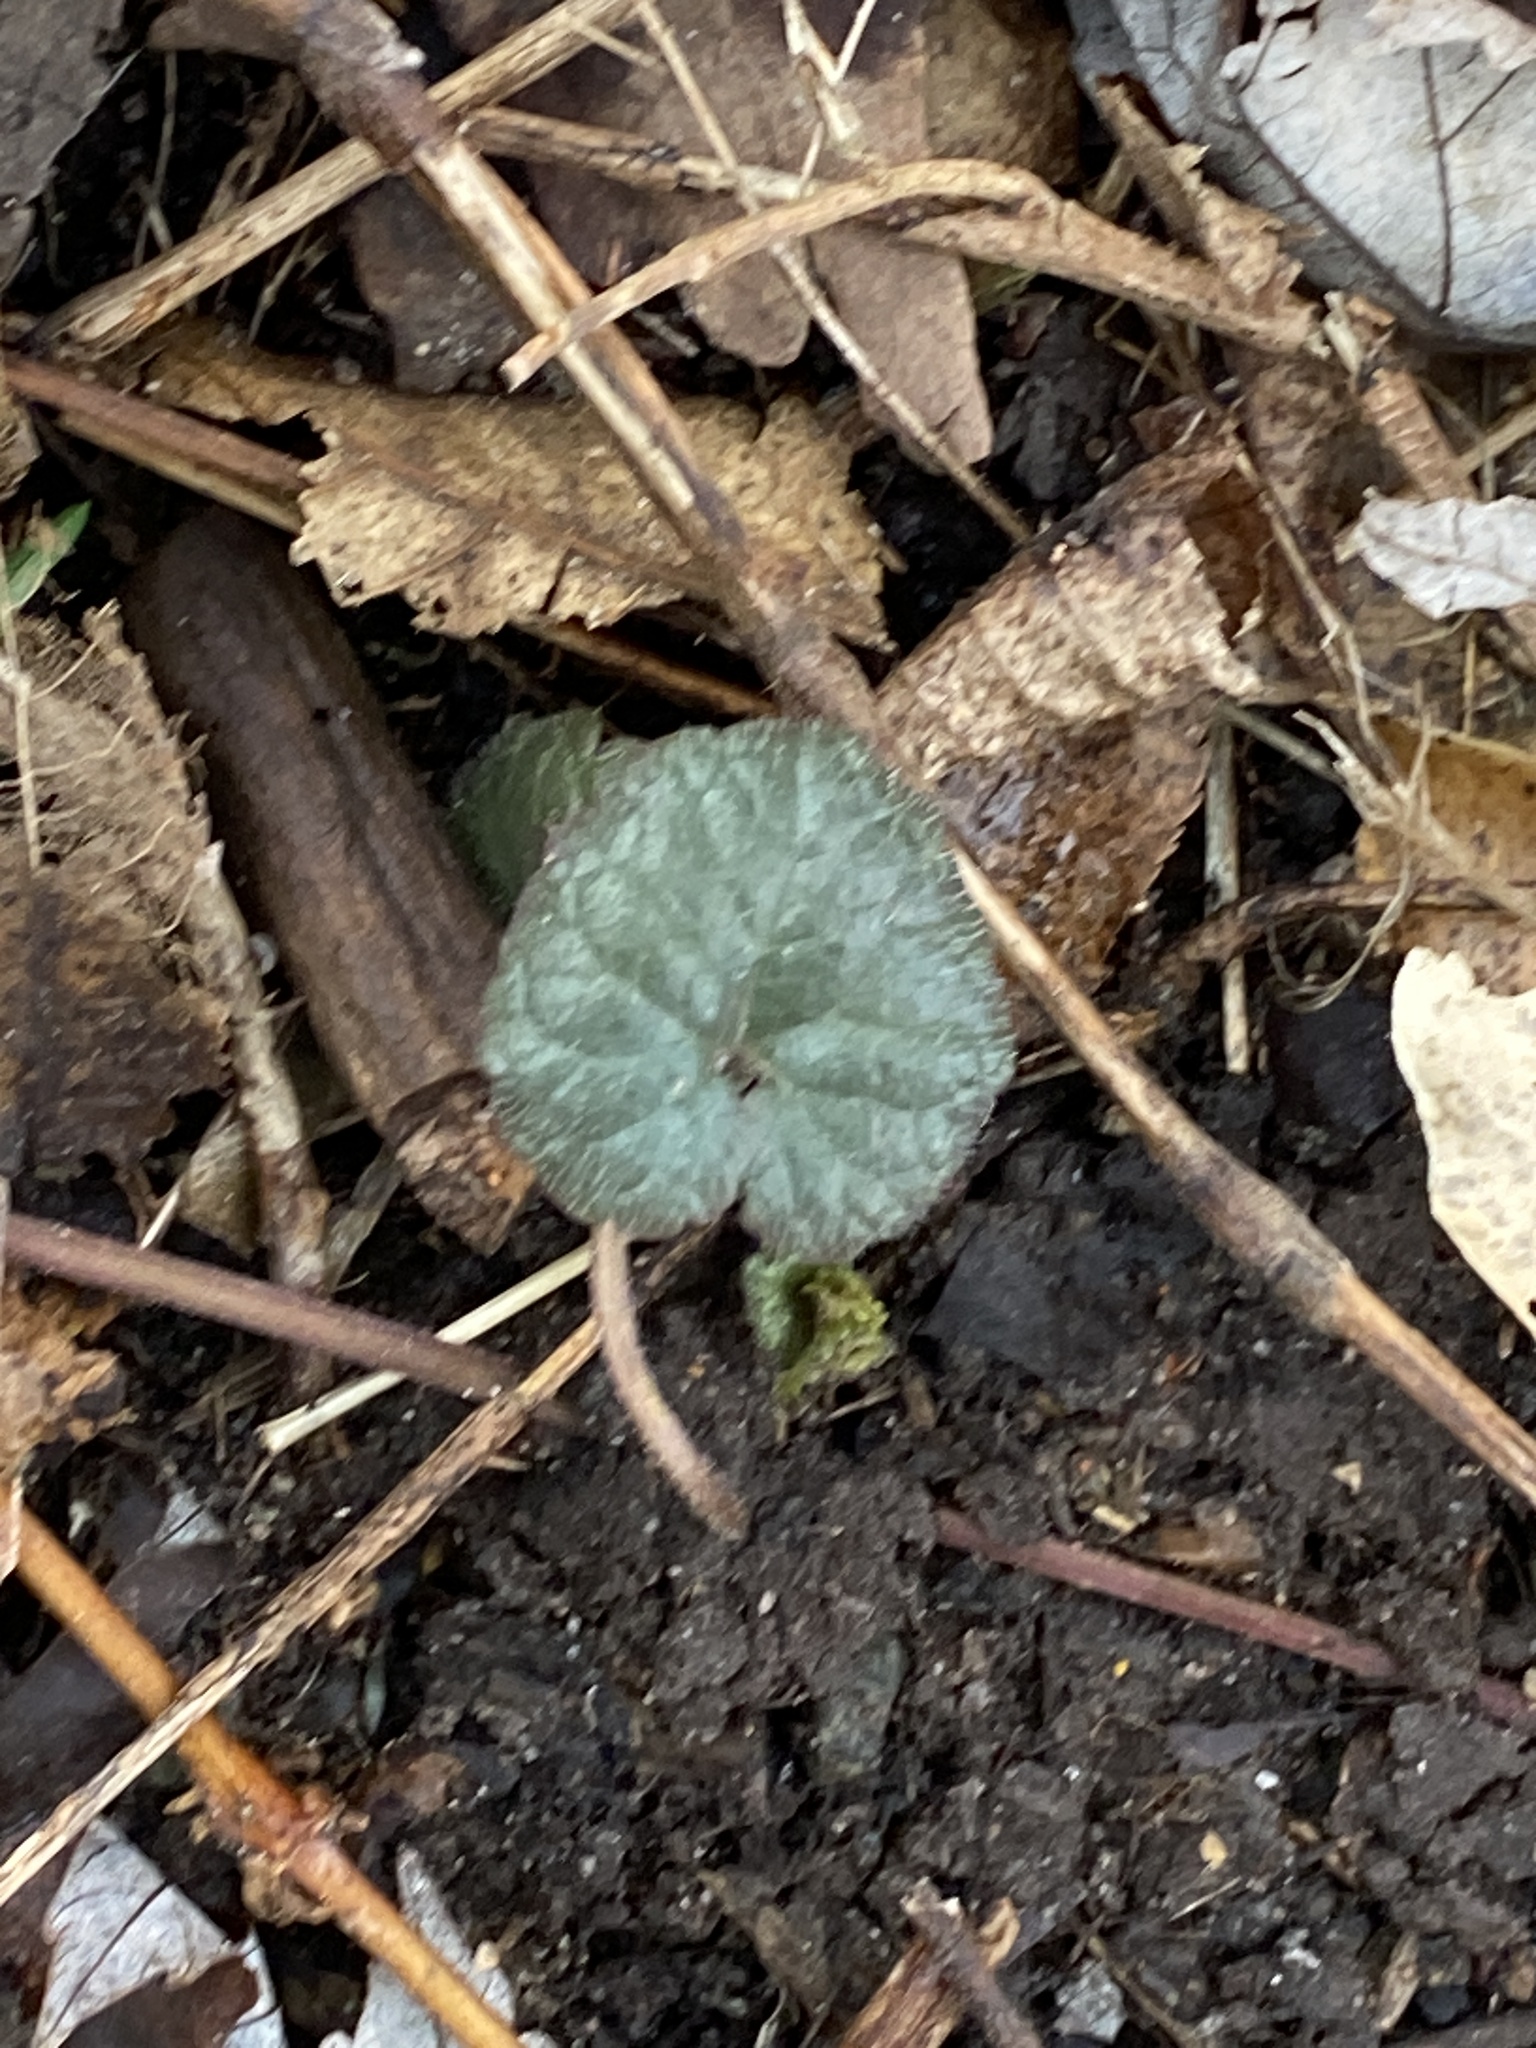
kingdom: Plantae
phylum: Tracheophyta
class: Magnoliopsida
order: Lamiales
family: Lamiaceae
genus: Glechoma
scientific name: Glechoma hederacea
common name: Ground ivy
